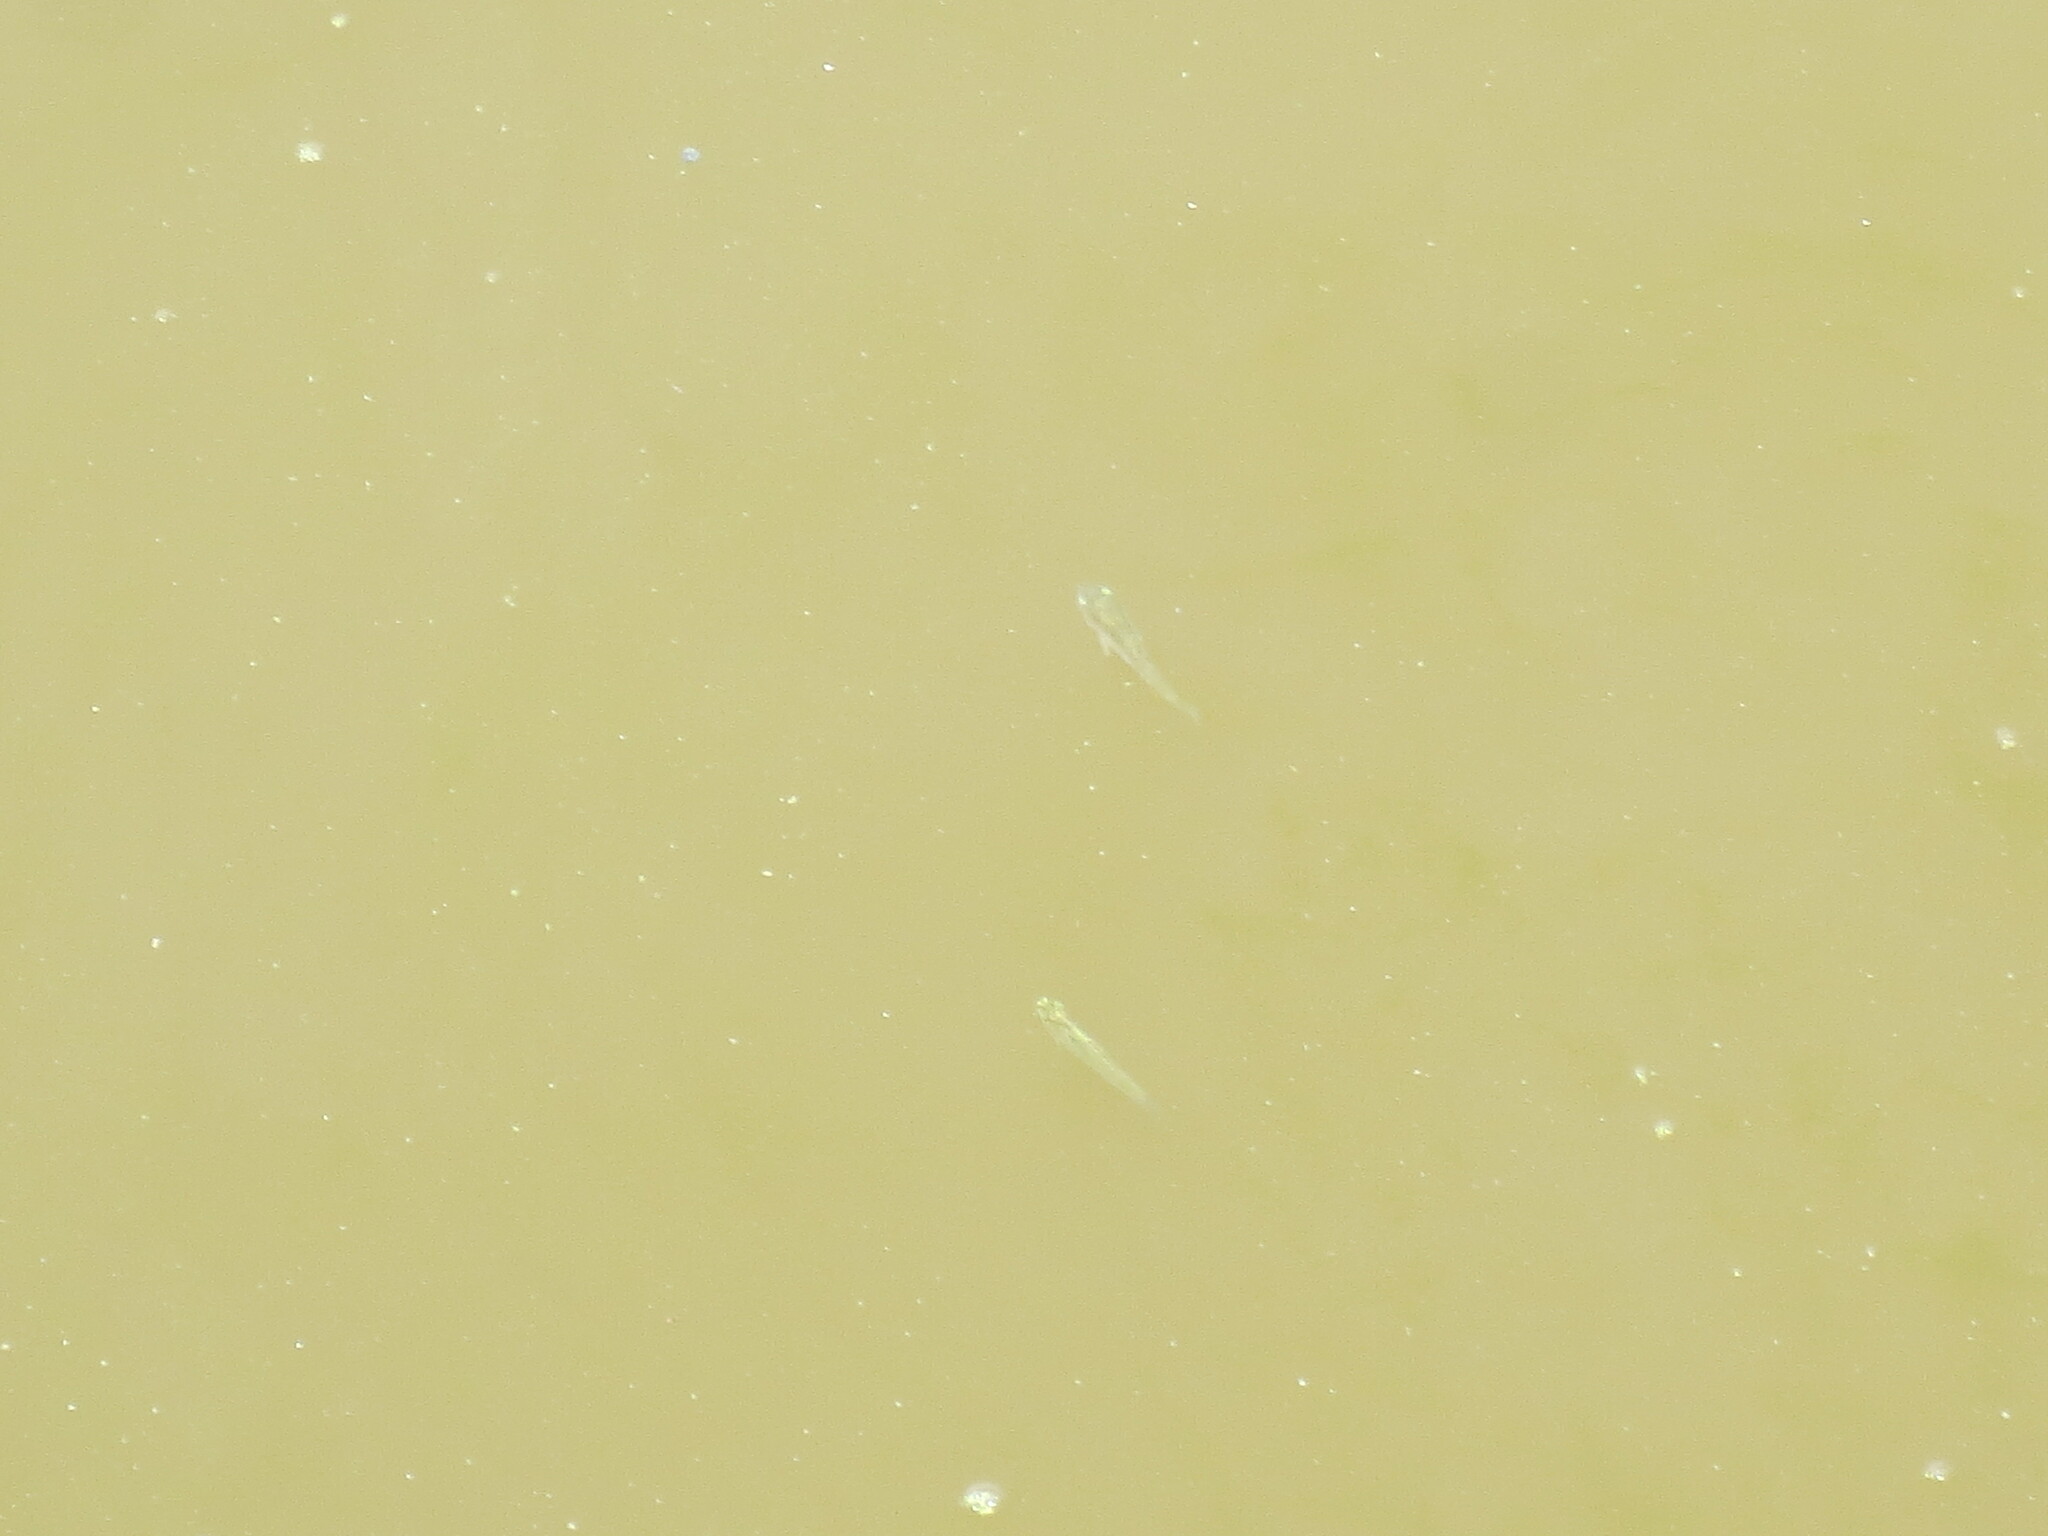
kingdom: Animalia
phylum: Chordata
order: Cyprinodontiformes
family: Poeciliidae
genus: Gambusia
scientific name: Gambusia holbrooki
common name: Eastern mosquitofish
